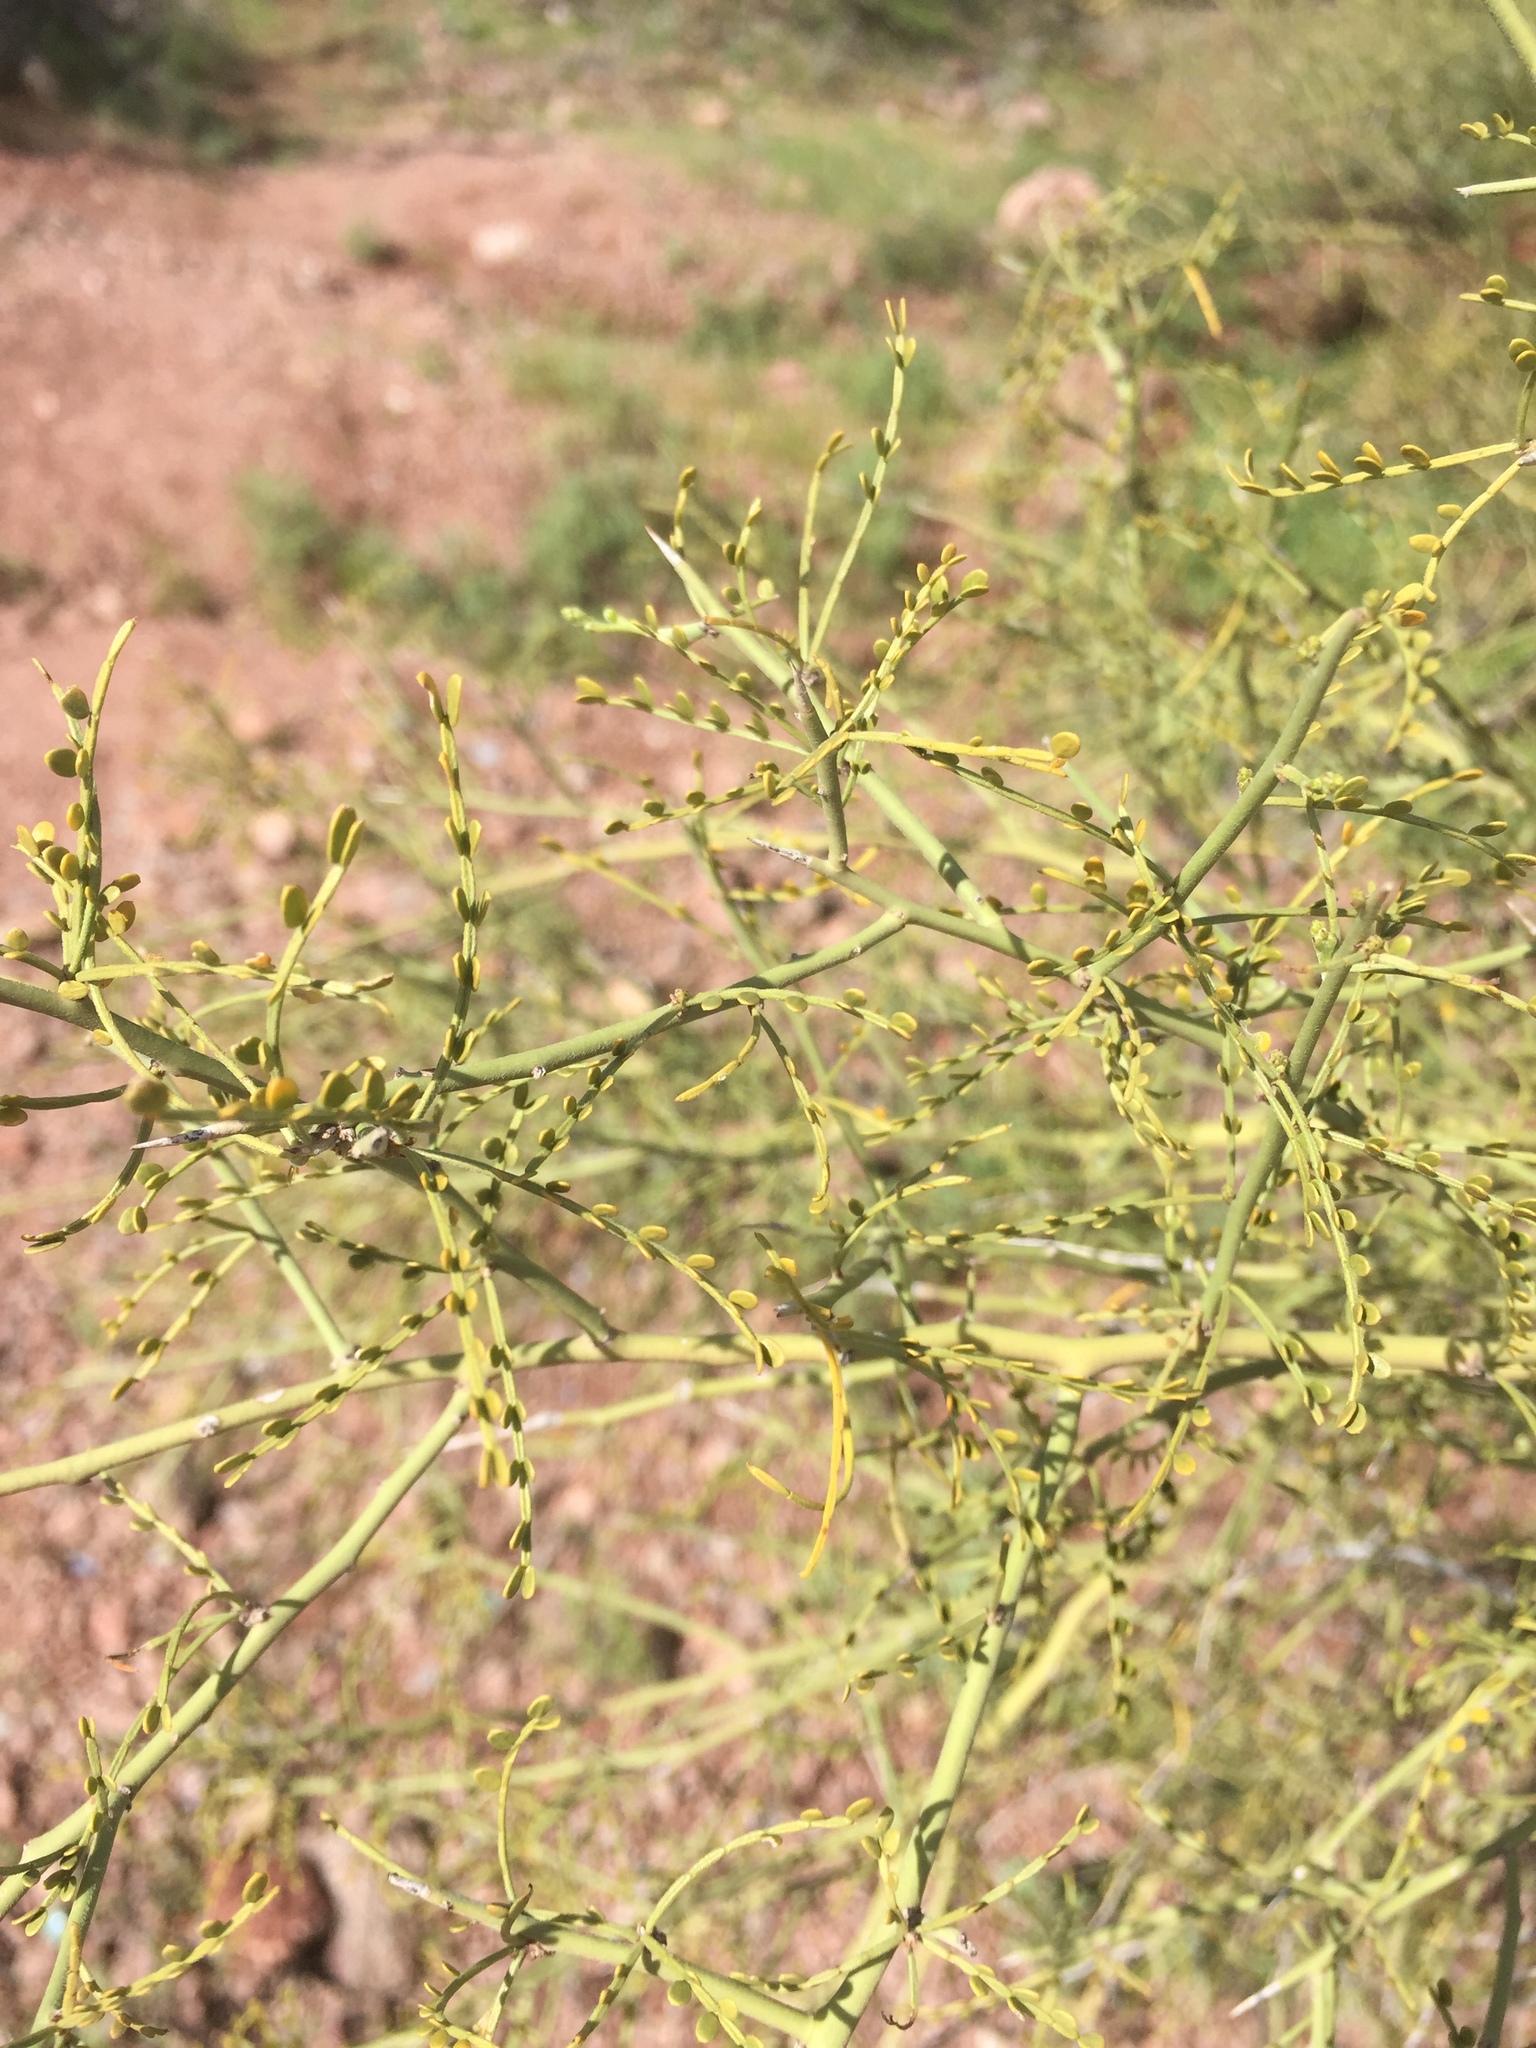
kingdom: Plantae
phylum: Tracheophyta
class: Magnoliopsida
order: Fabales
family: Fabaceae
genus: Parkinsonia
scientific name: Parkinsonia microphylla
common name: Yellow paloverde
